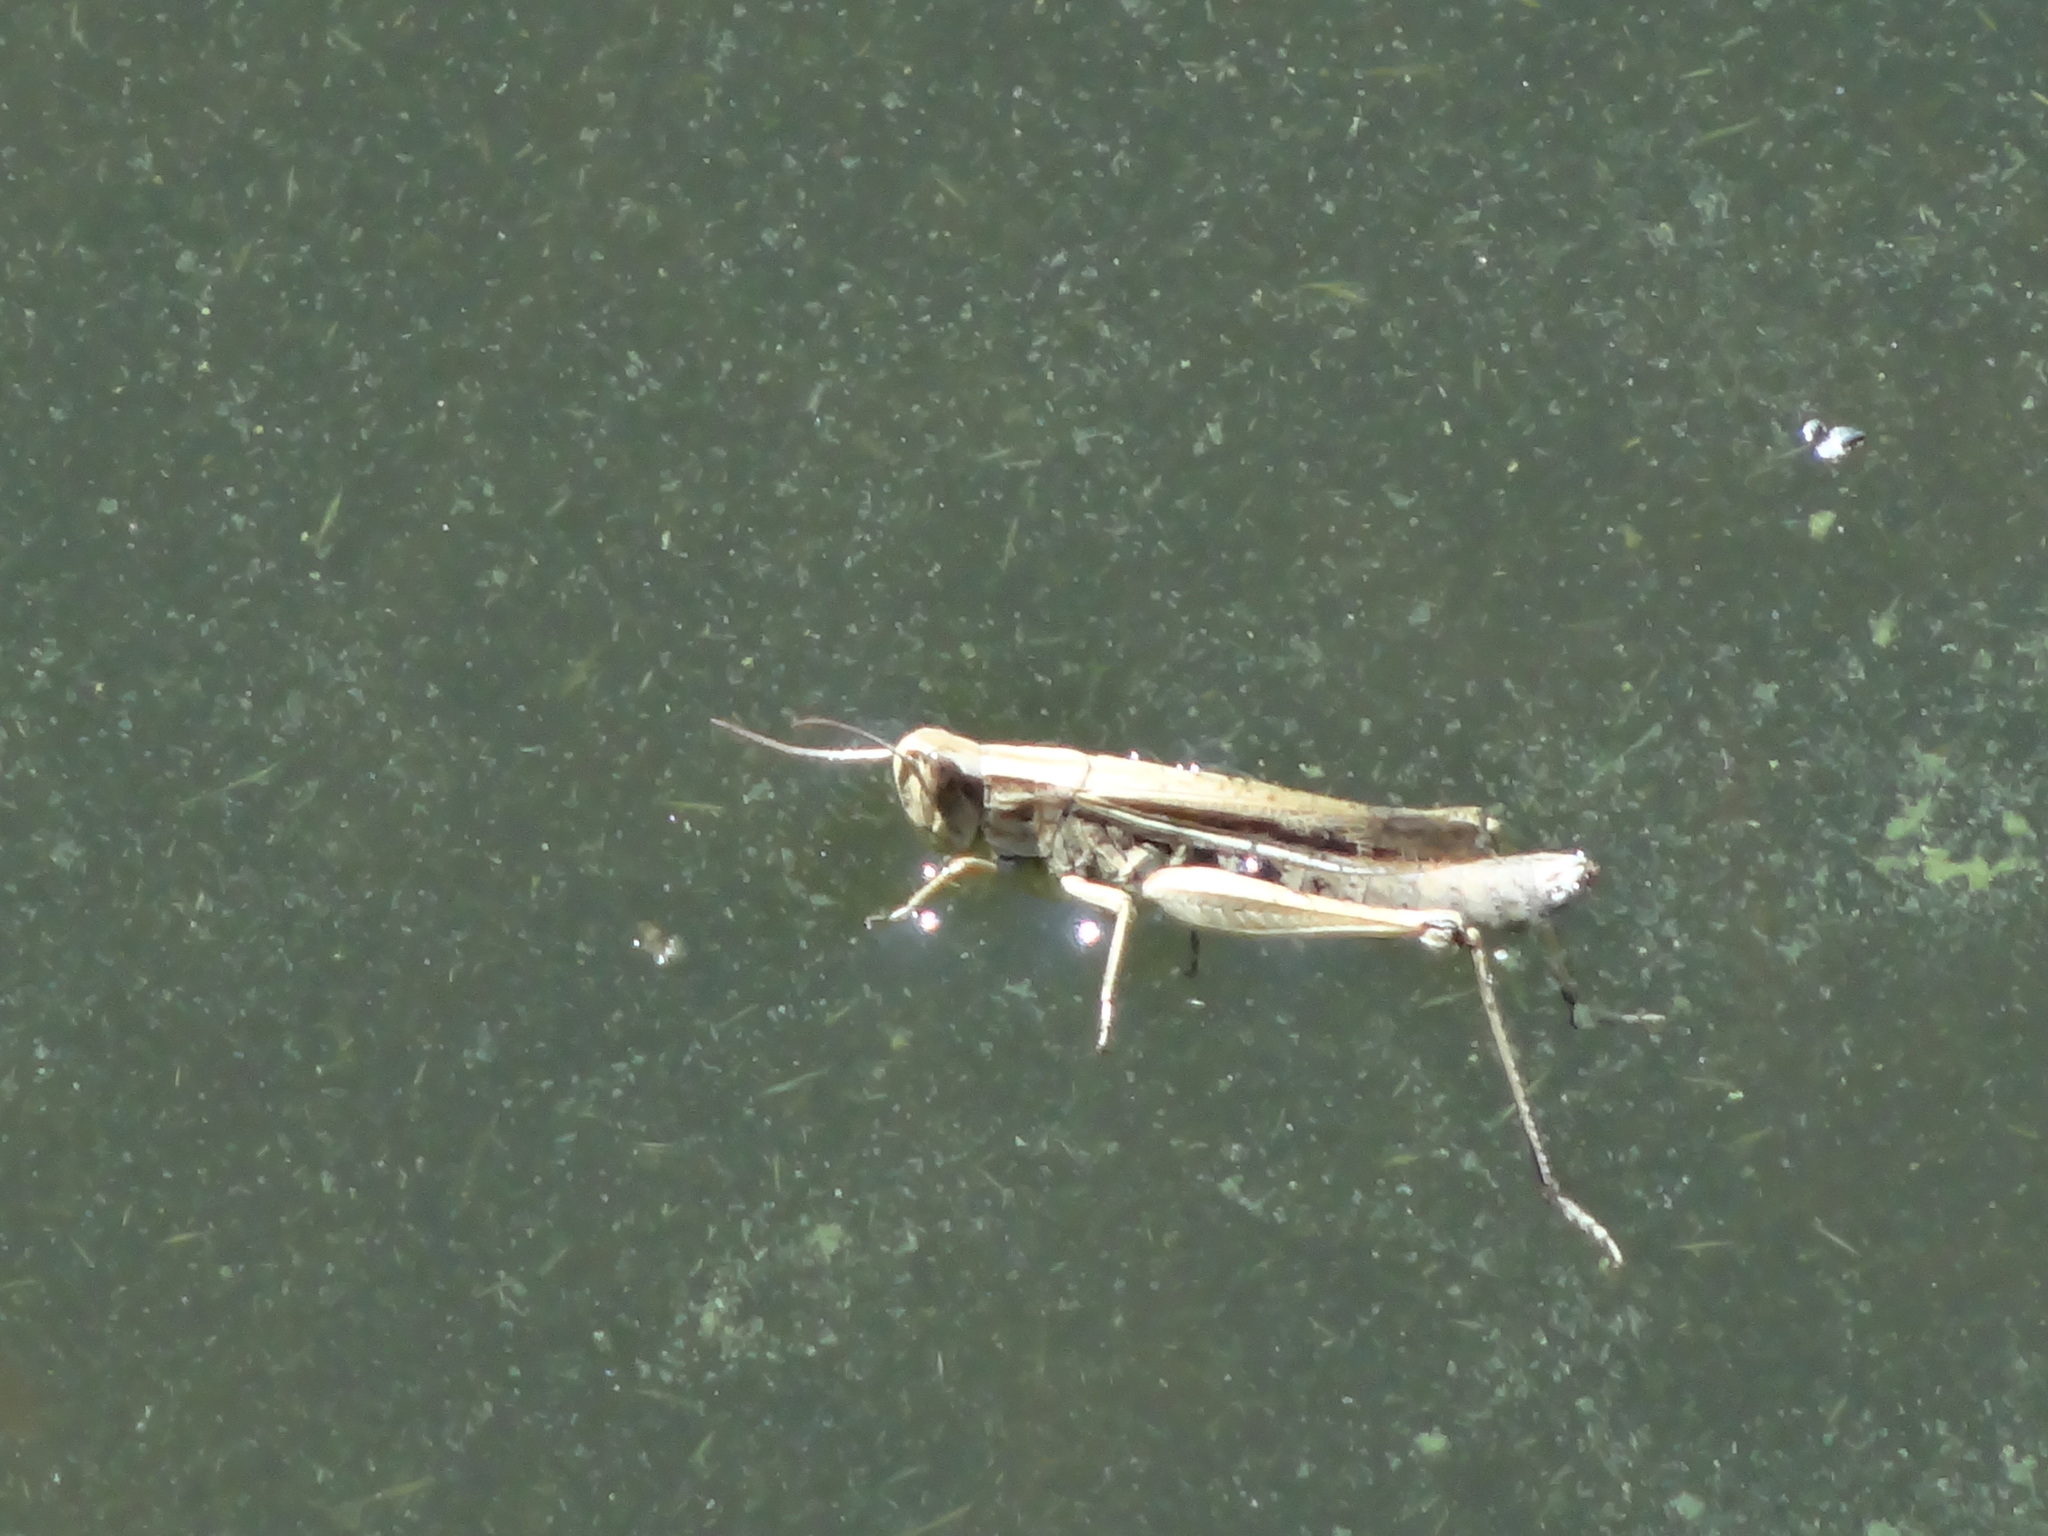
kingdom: Animalia
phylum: Arthropoda
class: Insecta
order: Orthoptera
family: Acrididae
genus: Chorthippus
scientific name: Chorthippus albomarginatus
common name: Lesser marsh grasshopper
